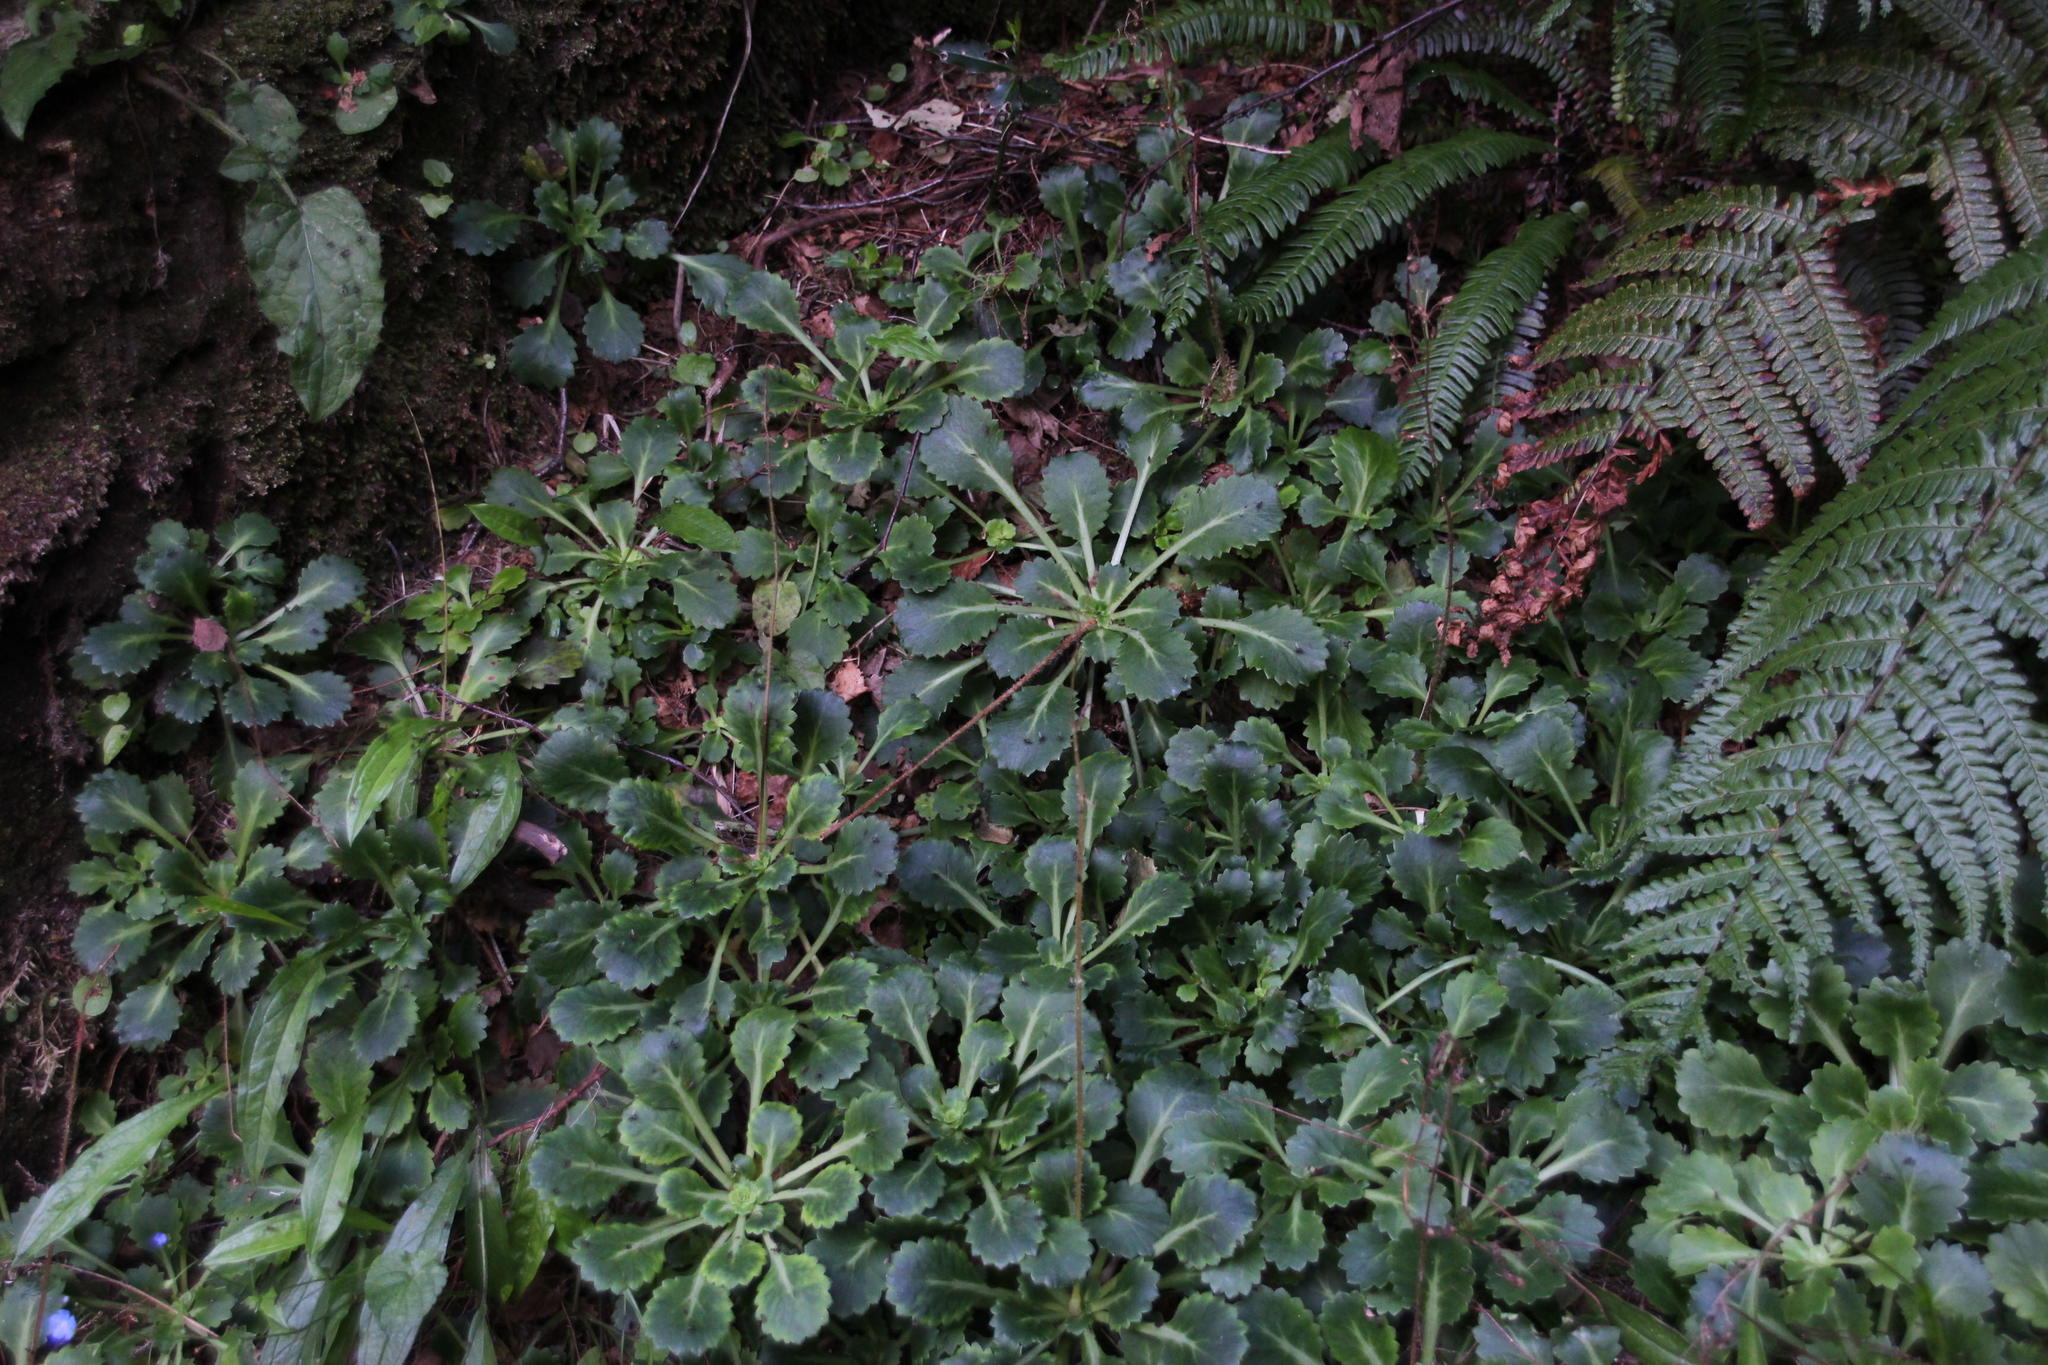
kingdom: Plantae
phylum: Tracheophyta
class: Magnoliopsida
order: Saxifragales
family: Saxifragaceae
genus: Saxifraga
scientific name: Saxifraga spathularis
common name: St patrick's-cabbage
